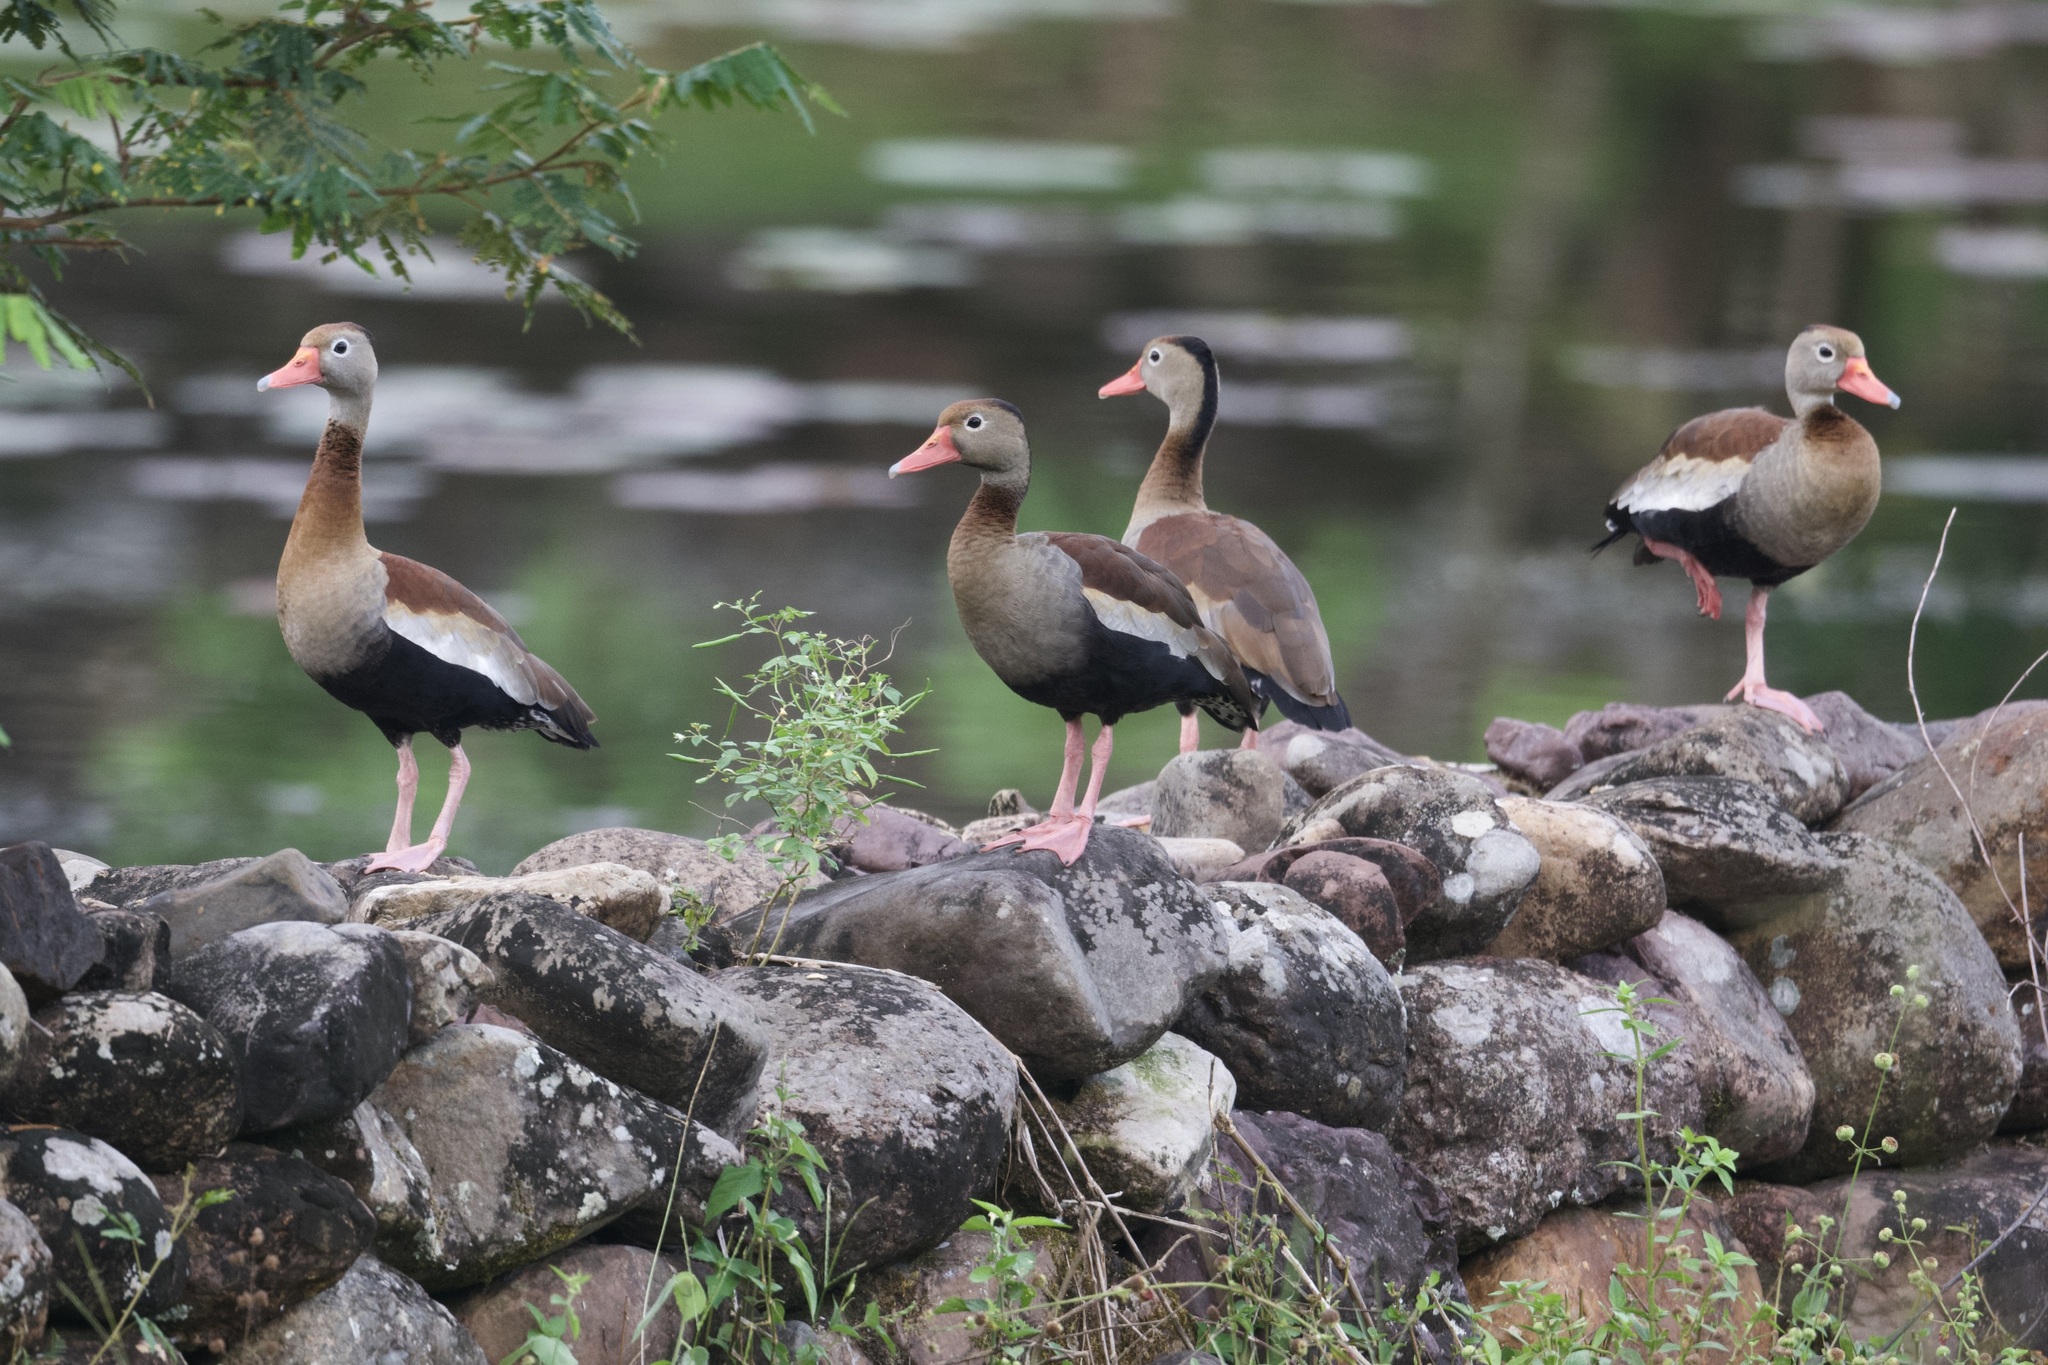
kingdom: Animalia
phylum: Chordata
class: Aves
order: Anseriformes
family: Anatidae
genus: Dendrocygna
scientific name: Dendrocygna autumnalis
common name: Black-bellied whistling duck
